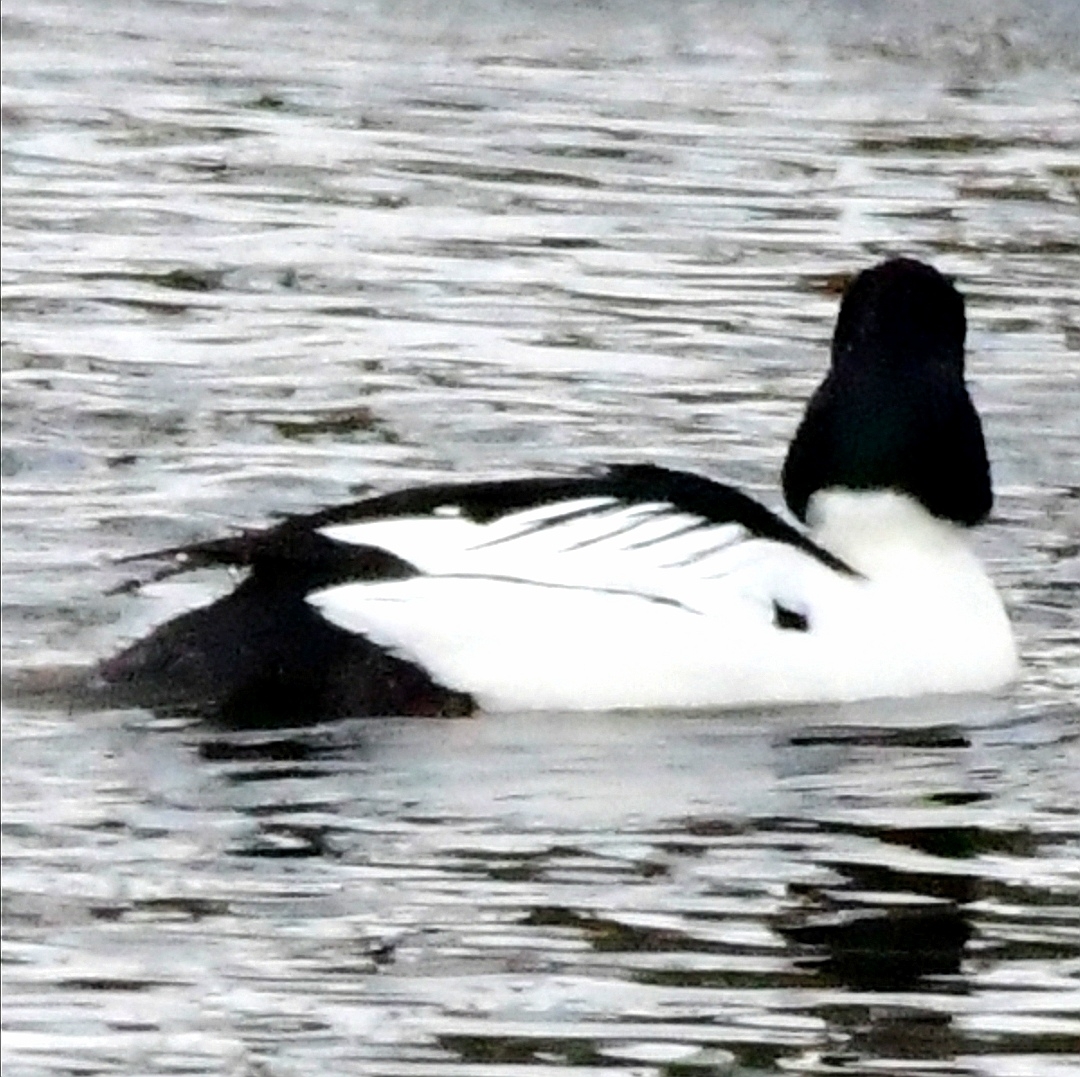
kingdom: Animalia
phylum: Chordata
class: Aves
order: Anseriformes
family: Anatidae
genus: Bucephala
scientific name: Bucephala clangula
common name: Common goldeneye
